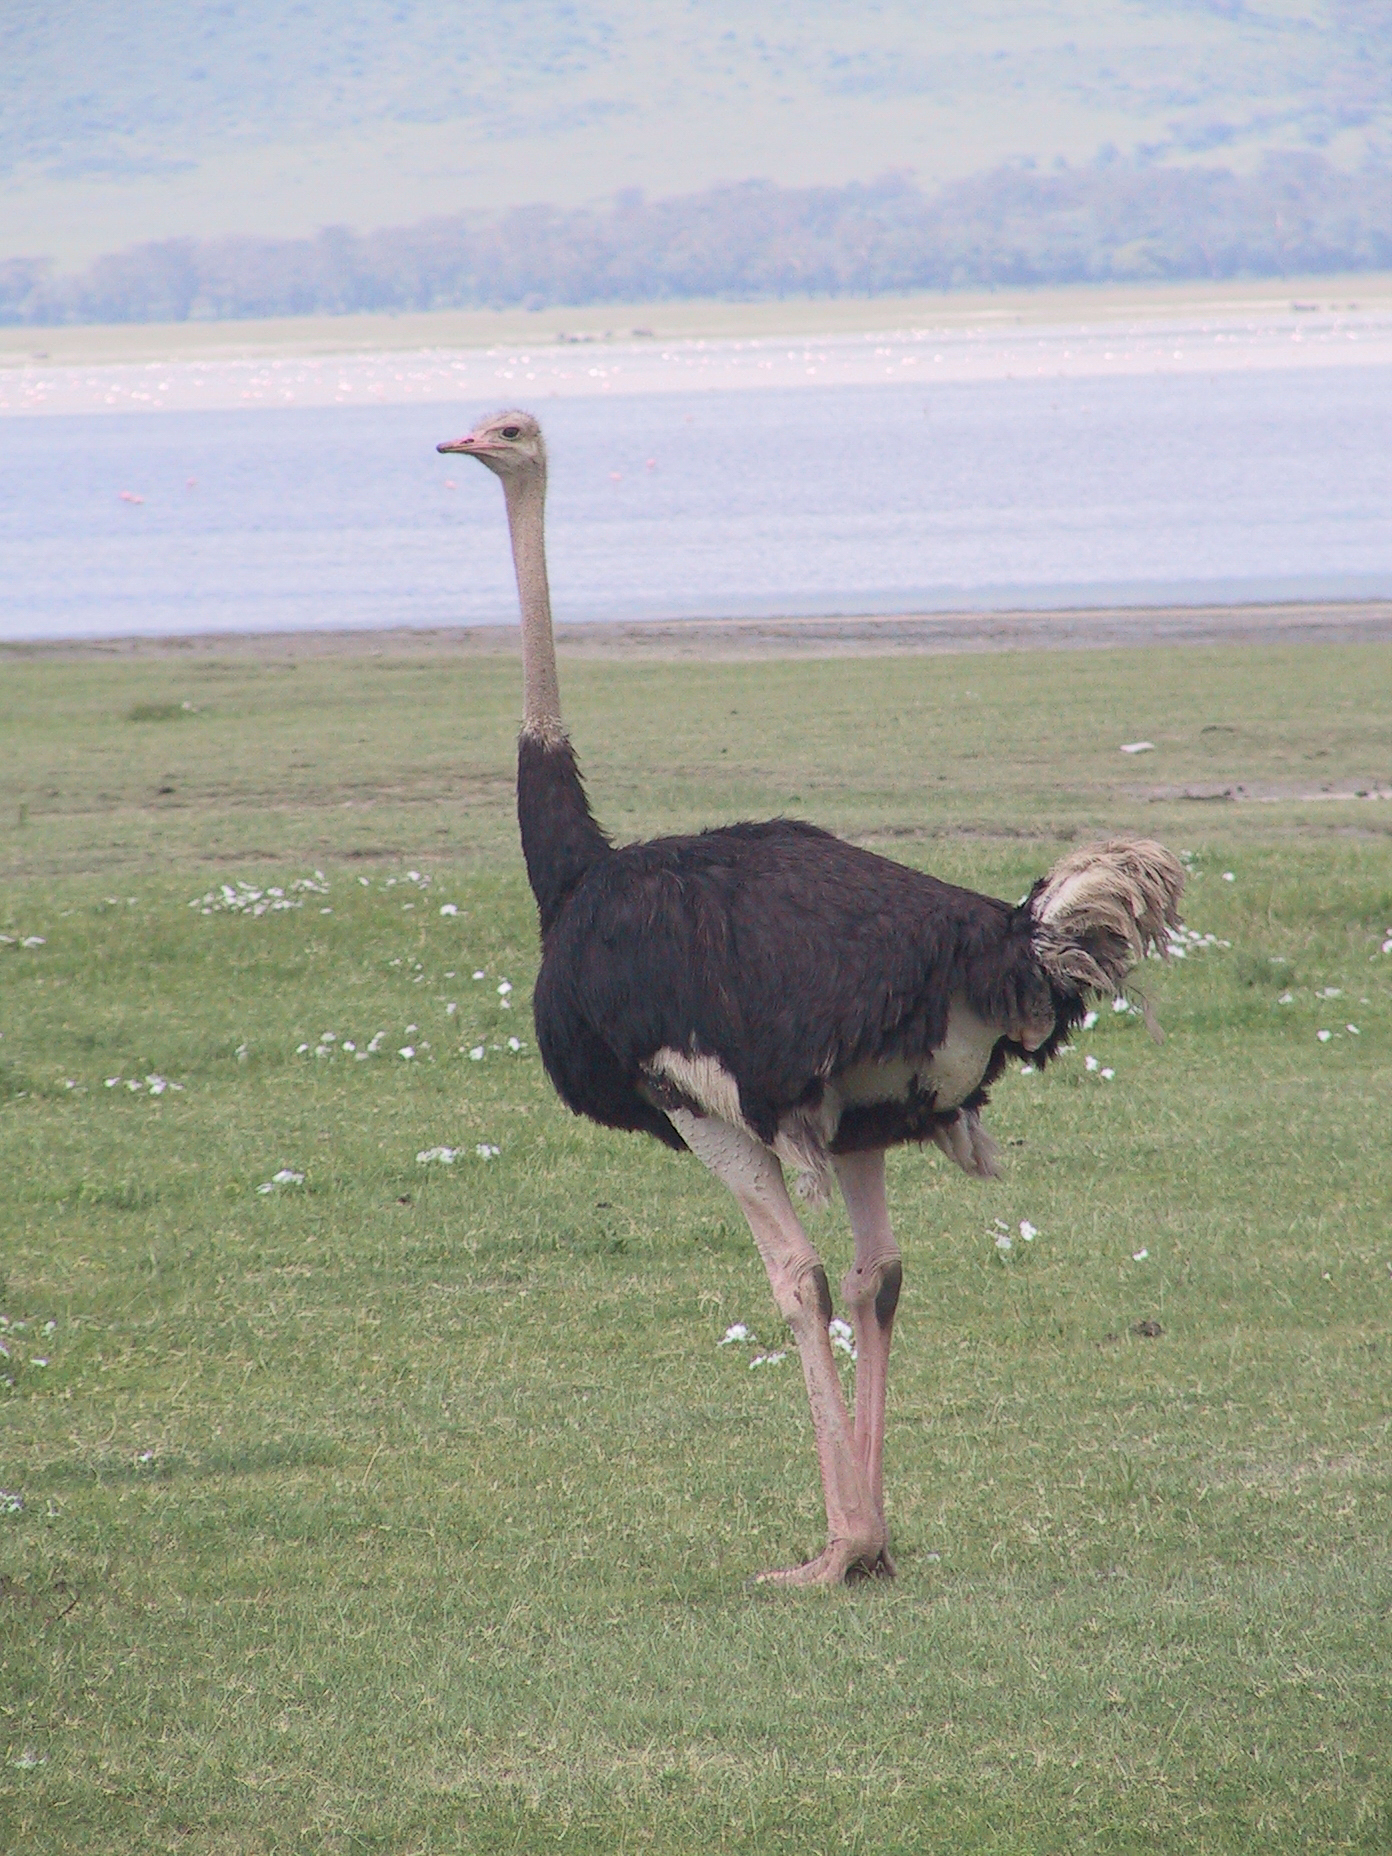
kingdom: Animalia
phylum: Chordata
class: Aves
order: Struthioniformes
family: Struthionidae
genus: Struthio
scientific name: Struthio camelus
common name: Common ostrich
